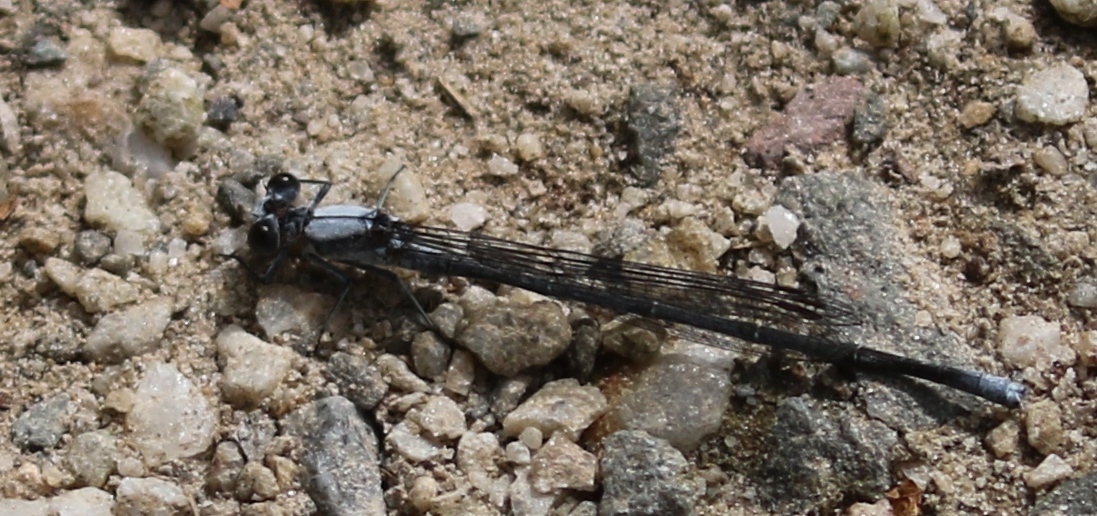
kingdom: Animalia
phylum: Arthropoda
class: Insecta
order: Odonata
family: Coenagrionidae
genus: Argia
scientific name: Argia moesta
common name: Powdered dancer
